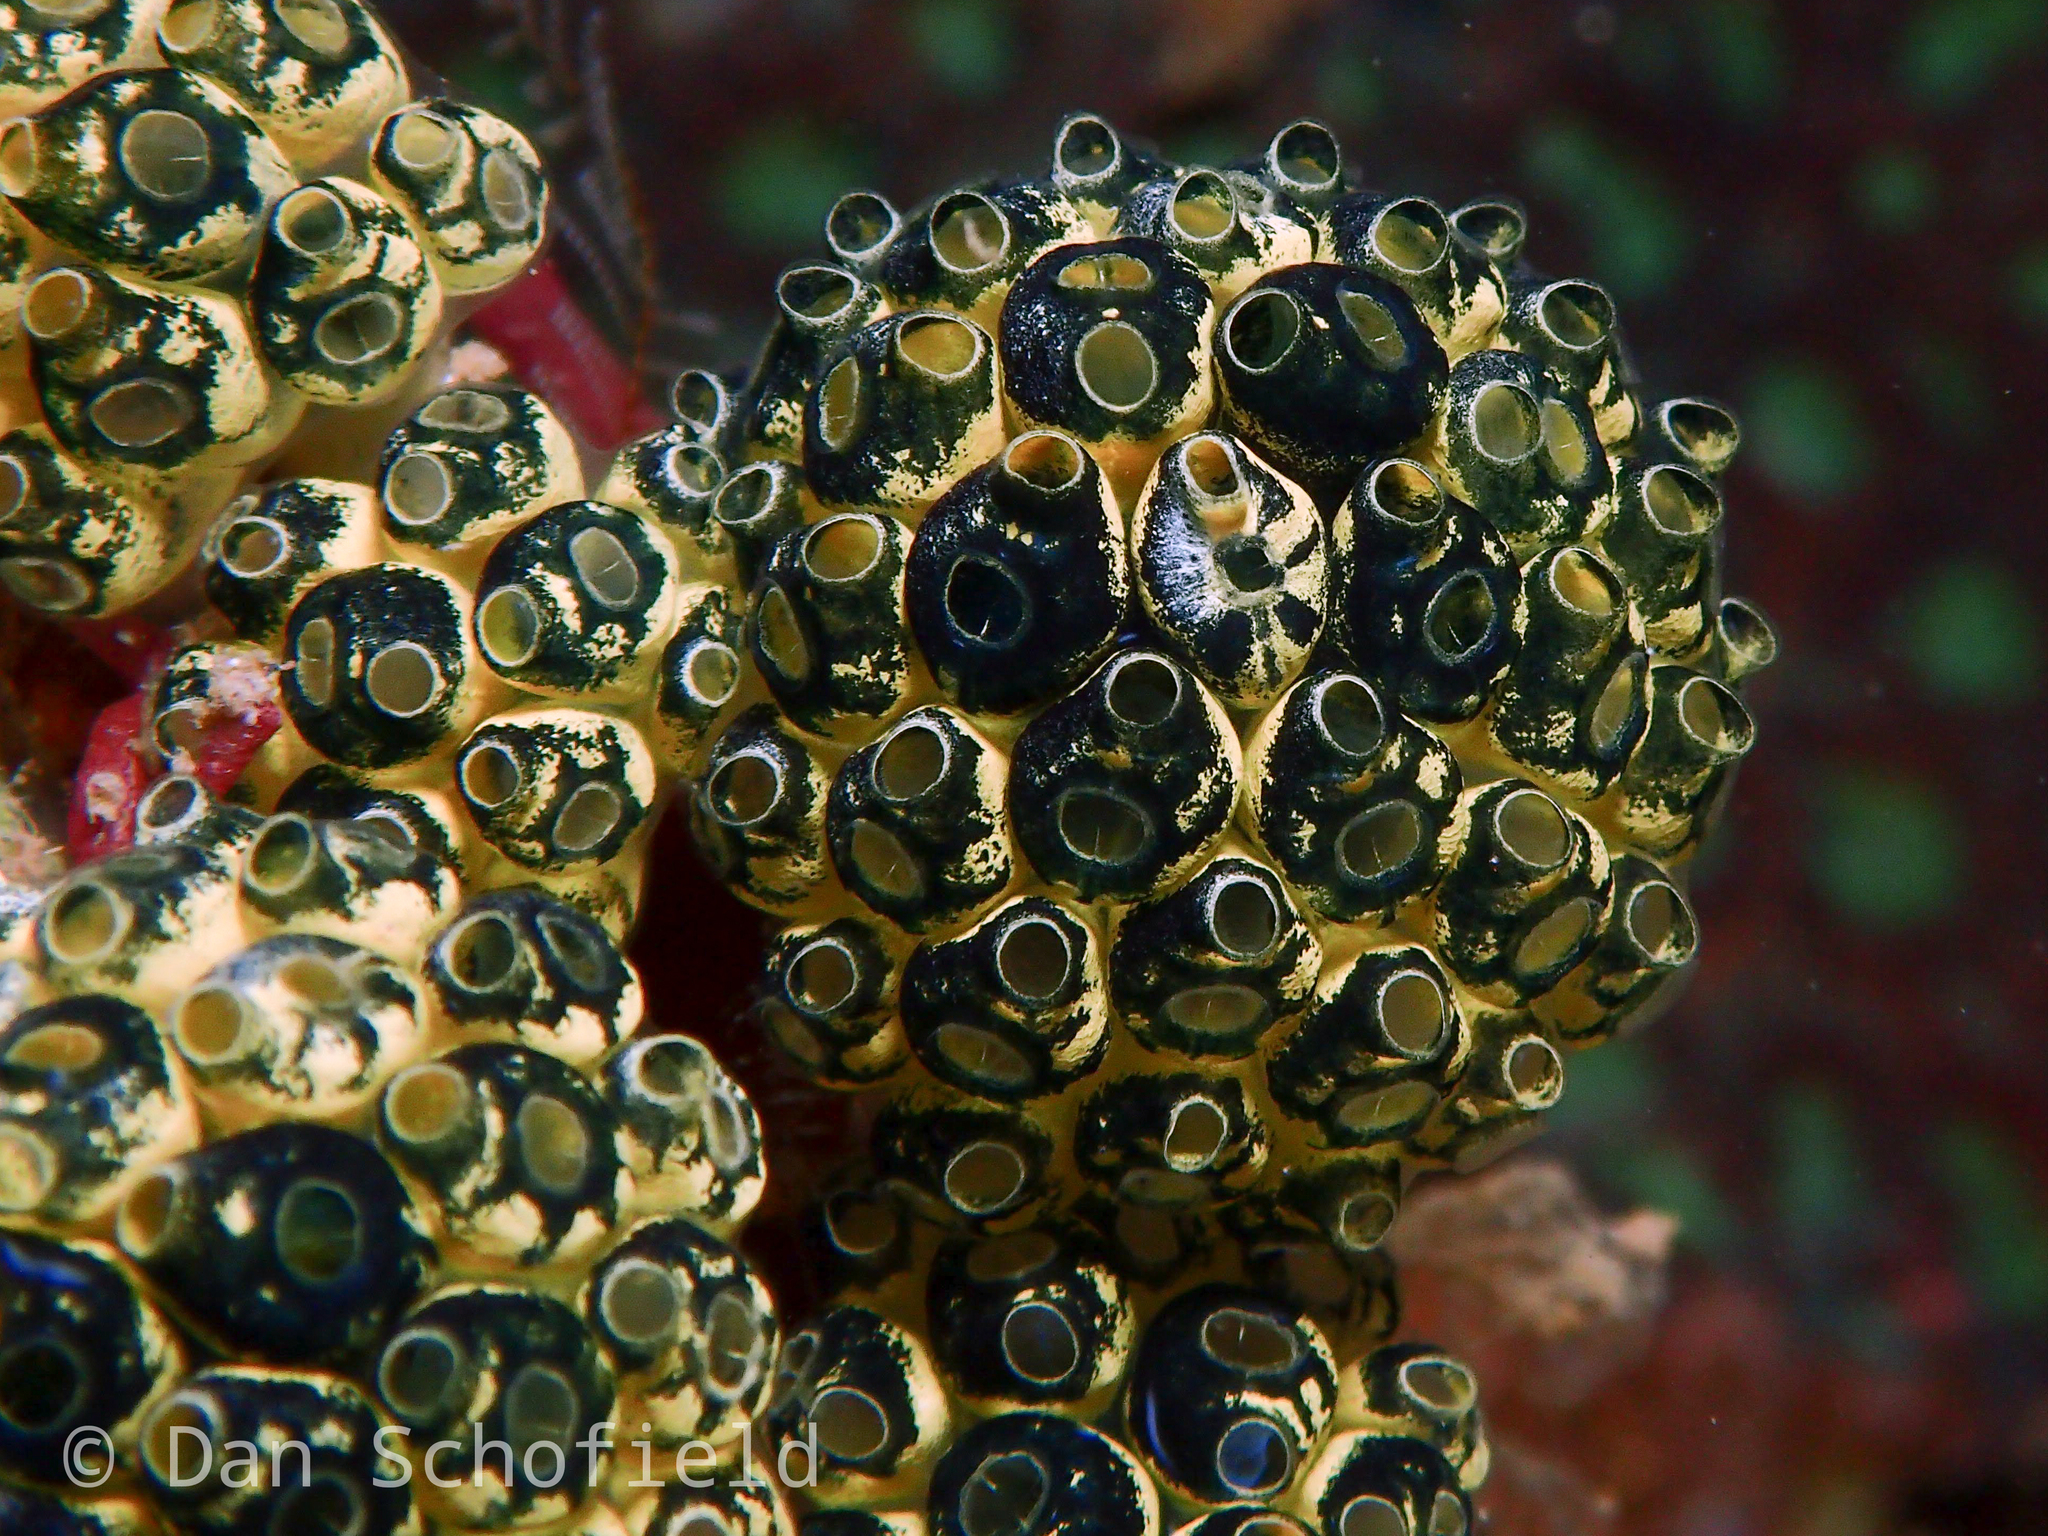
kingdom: Animalia
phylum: Chordata
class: Ascidiacea
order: Aplousobranchia
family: Clavelinidae
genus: Nephtheis
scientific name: Nephtheis fascicularis
